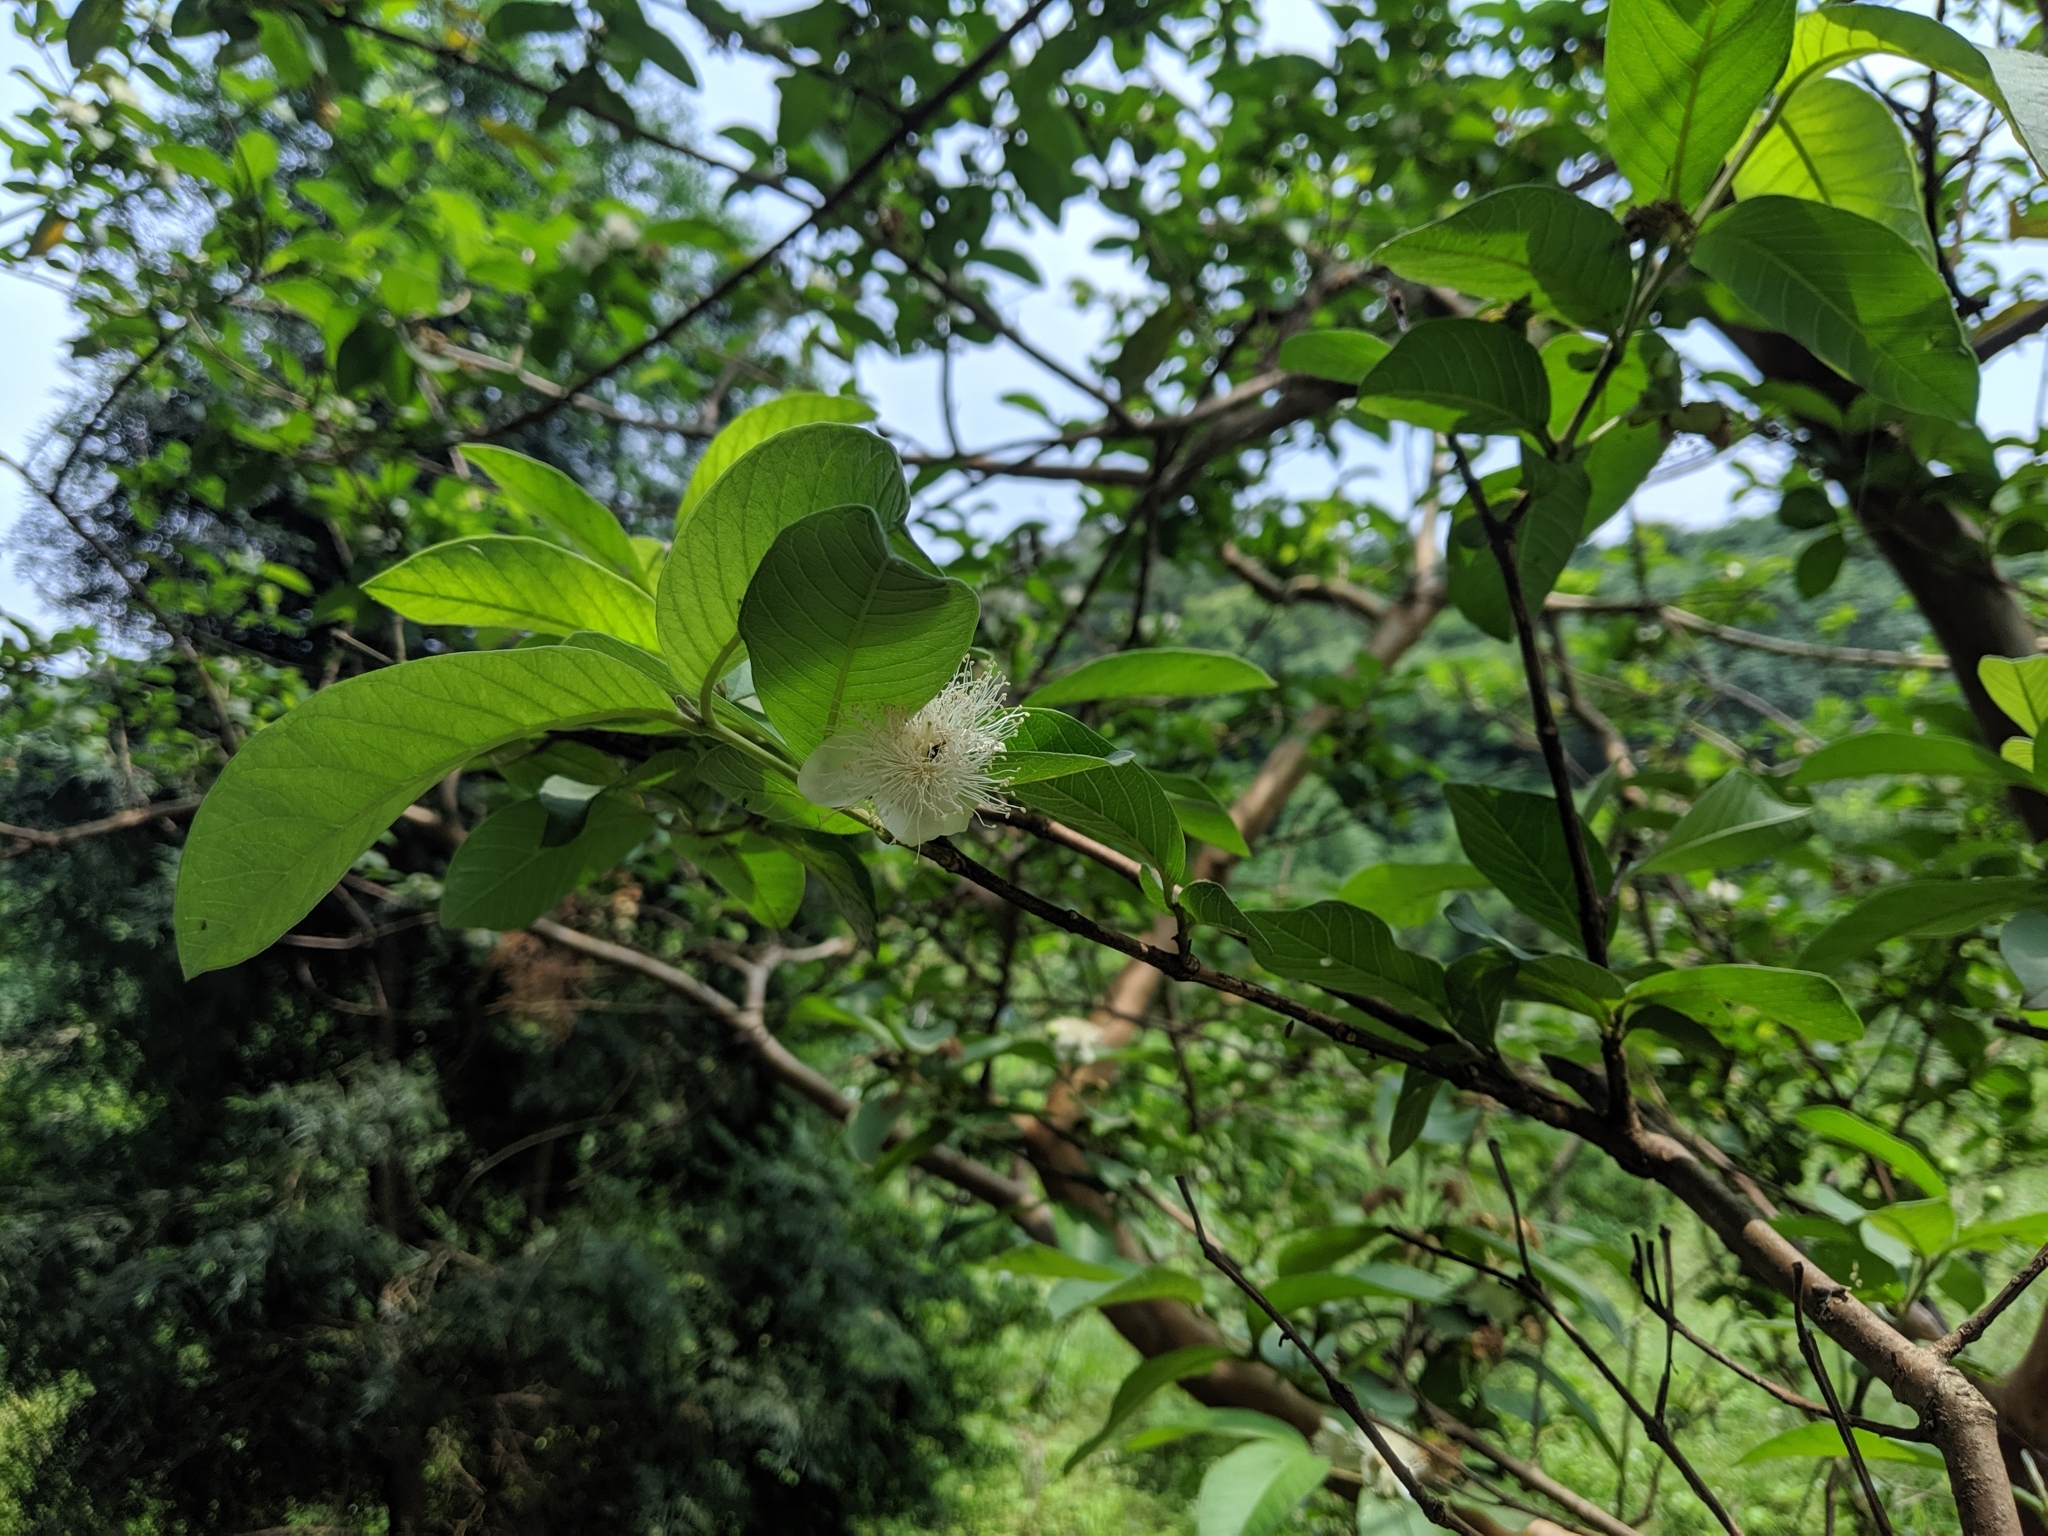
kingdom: Plantae
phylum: Tracheophyta
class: Magnoliopsida
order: Myrtales
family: Myrtaceae
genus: Psidium
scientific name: Psidium guajava
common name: Guava
